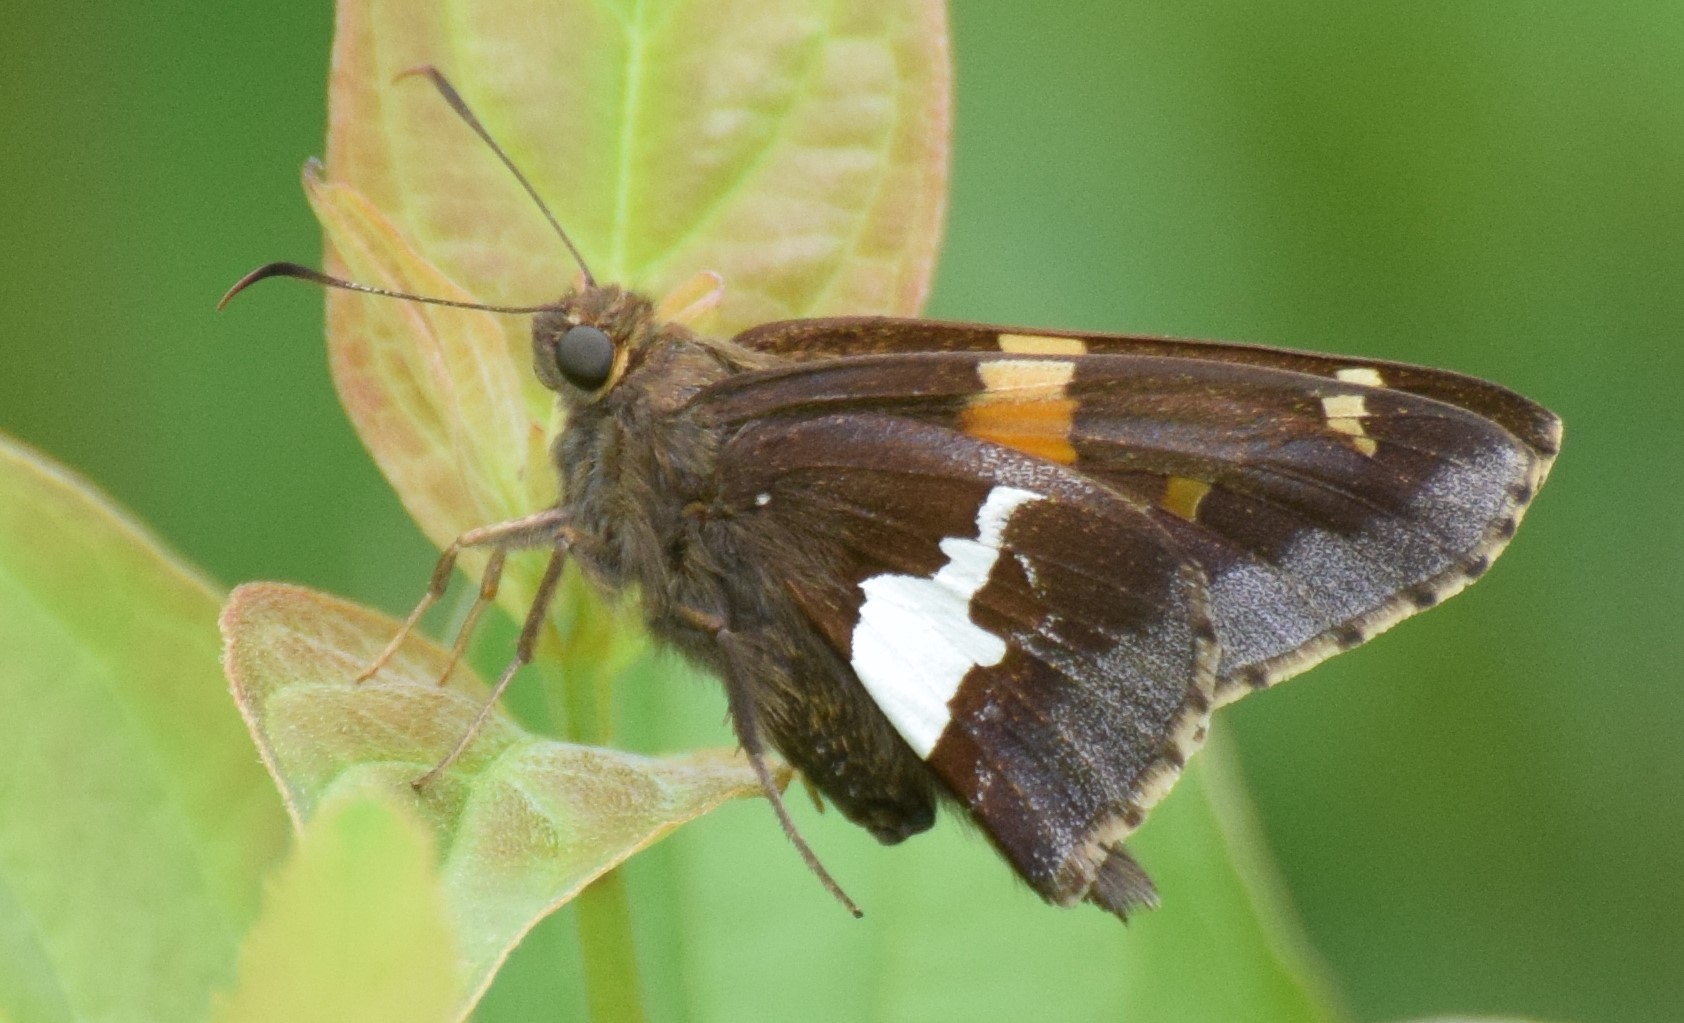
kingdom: Animalia
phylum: Arthropoda
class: Insecta
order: Lepidoptera
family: Hesperiidae
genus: Epargyreus
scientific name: Epargyreus clarus
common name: Silver-spotted skipper
